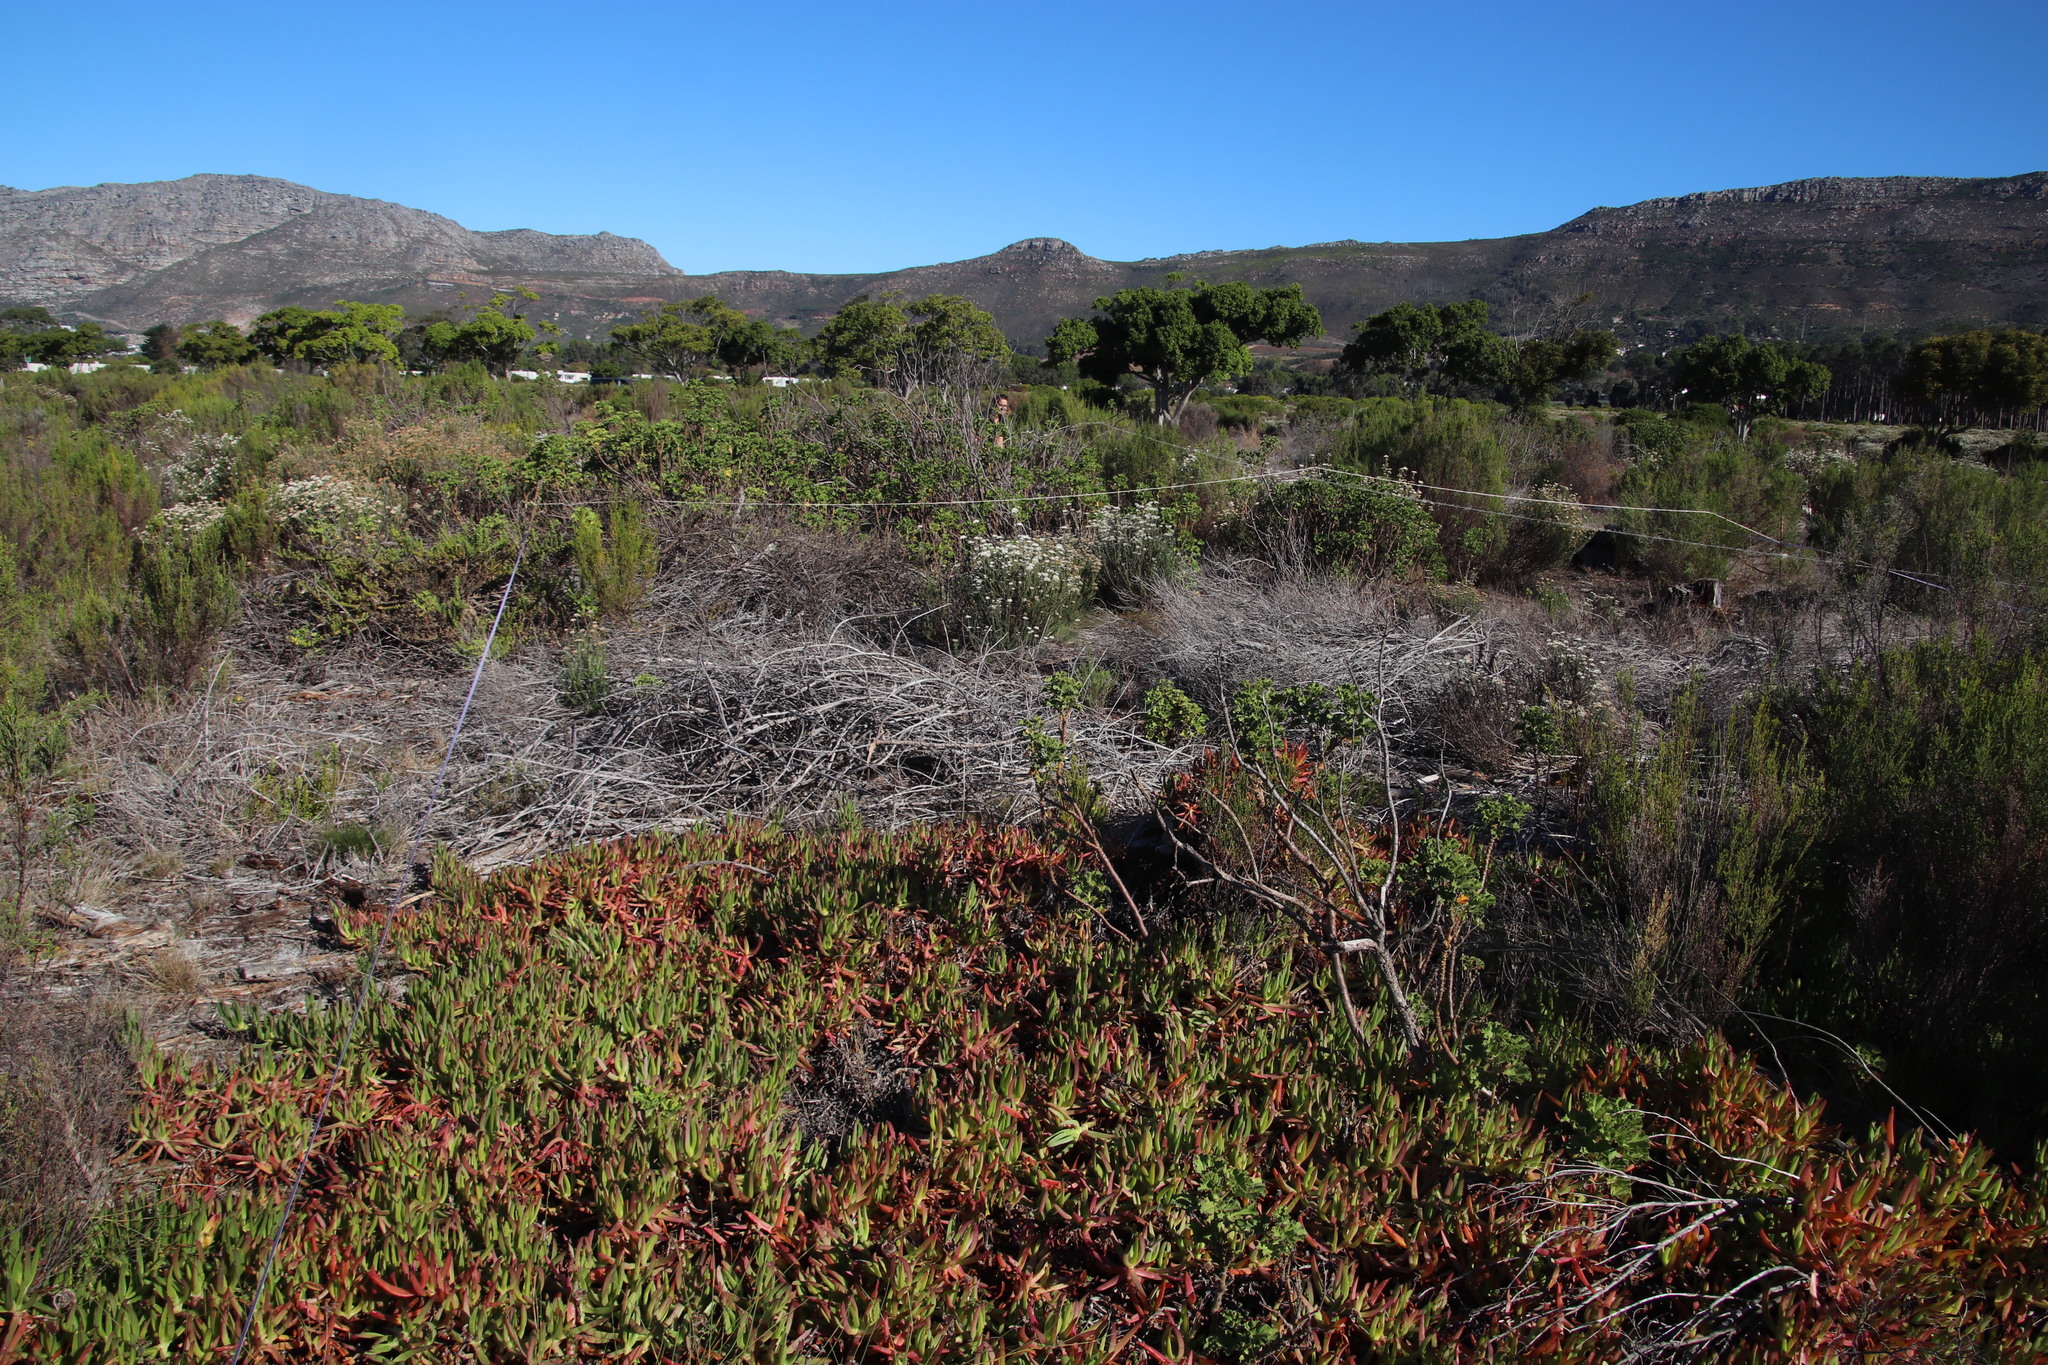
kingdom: Plantae
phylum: Tracheophyta
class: Magnoliopsida
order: Caryophyllales
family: Aizoaceae
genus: Carpobrotus
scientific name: Carpobrotus edulis
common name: Hottentot-fig
